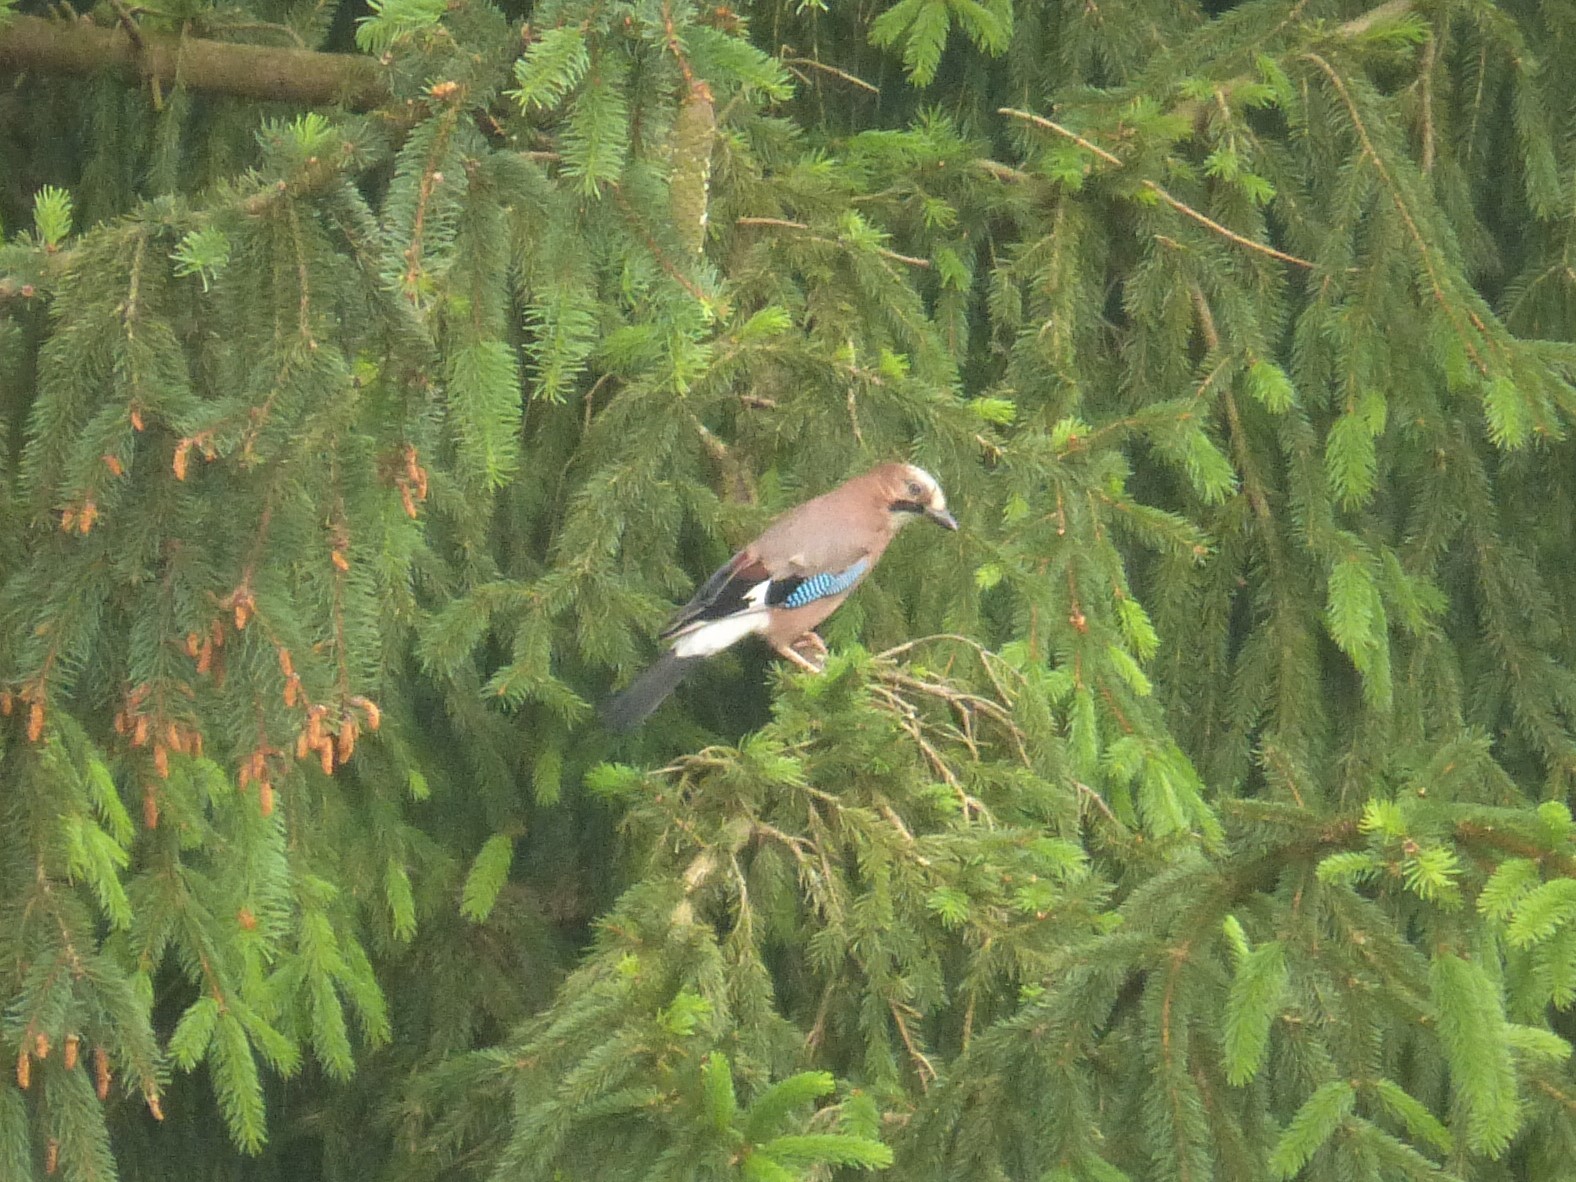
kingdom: Animalia
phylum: Chordata
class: Aves
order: Passeriformes
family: Corvidae
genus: Garrulus
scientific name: Garrulus glandarius
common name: Eurasian jay
